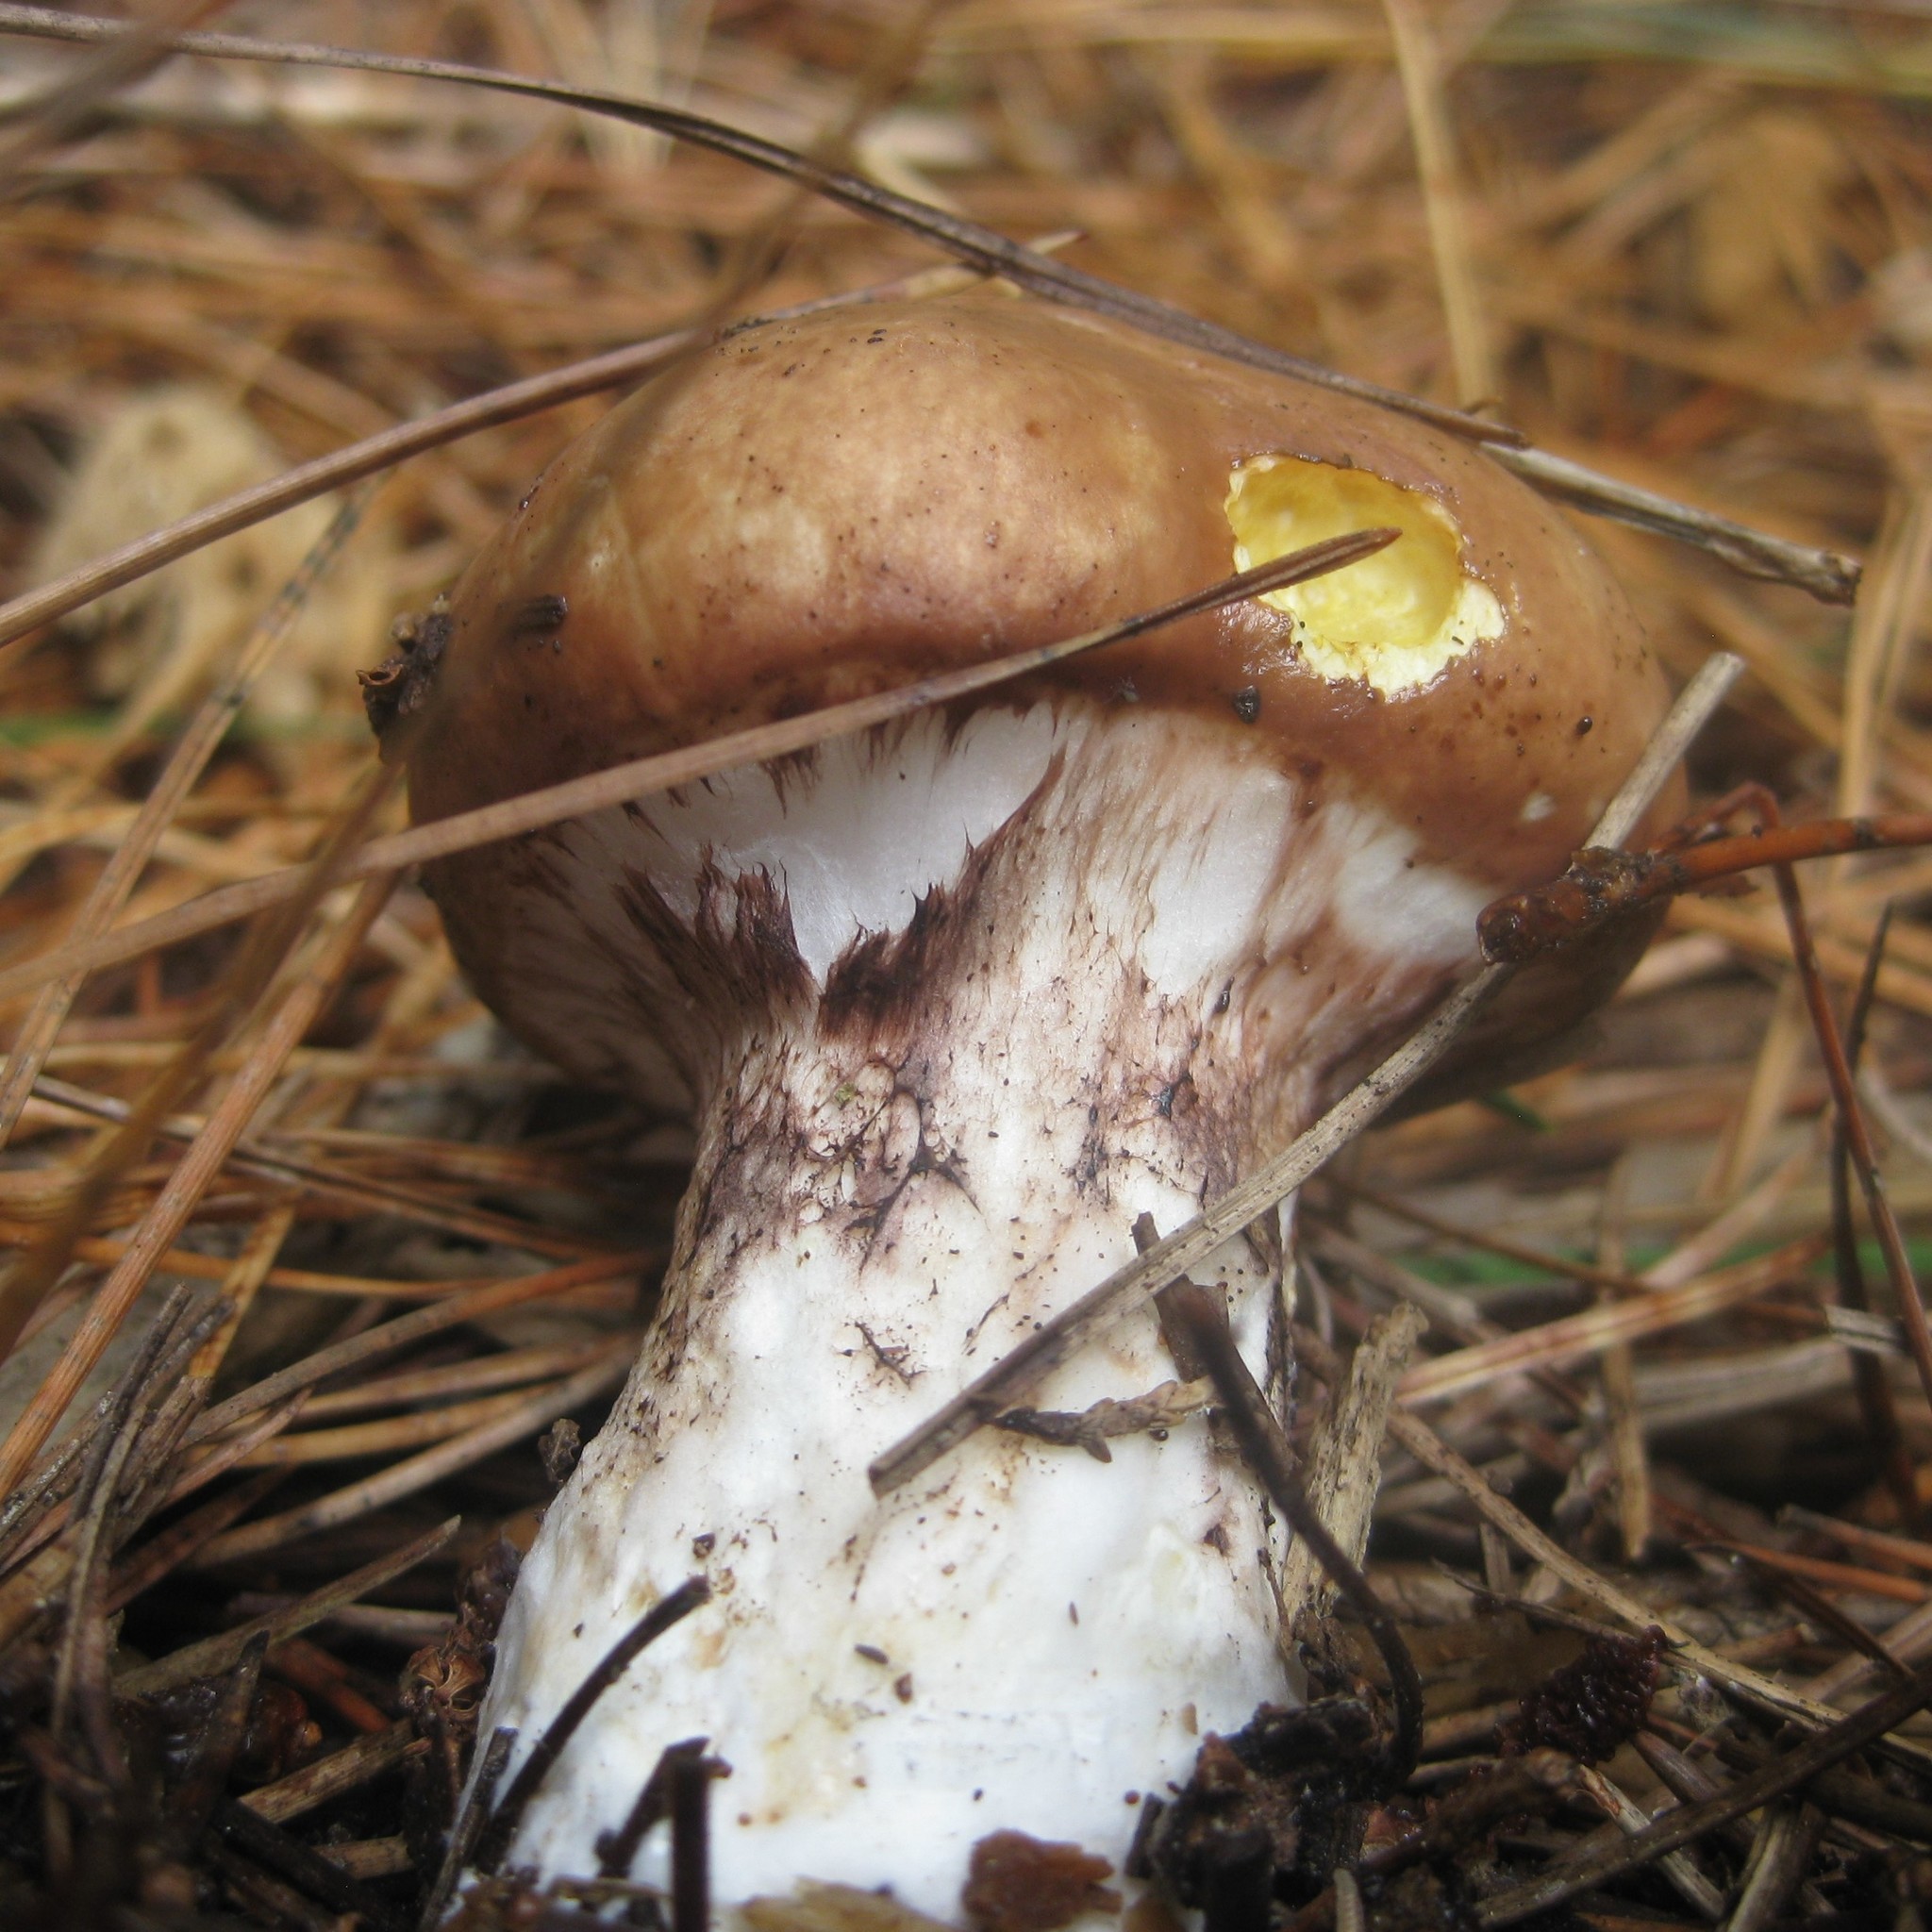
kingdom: Fungi
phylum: Basidiomycota
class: Agaricomycetes
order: Boletales
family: Suillaceae
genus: Suillus
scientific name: Suillus luteus
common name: Slippery jack
